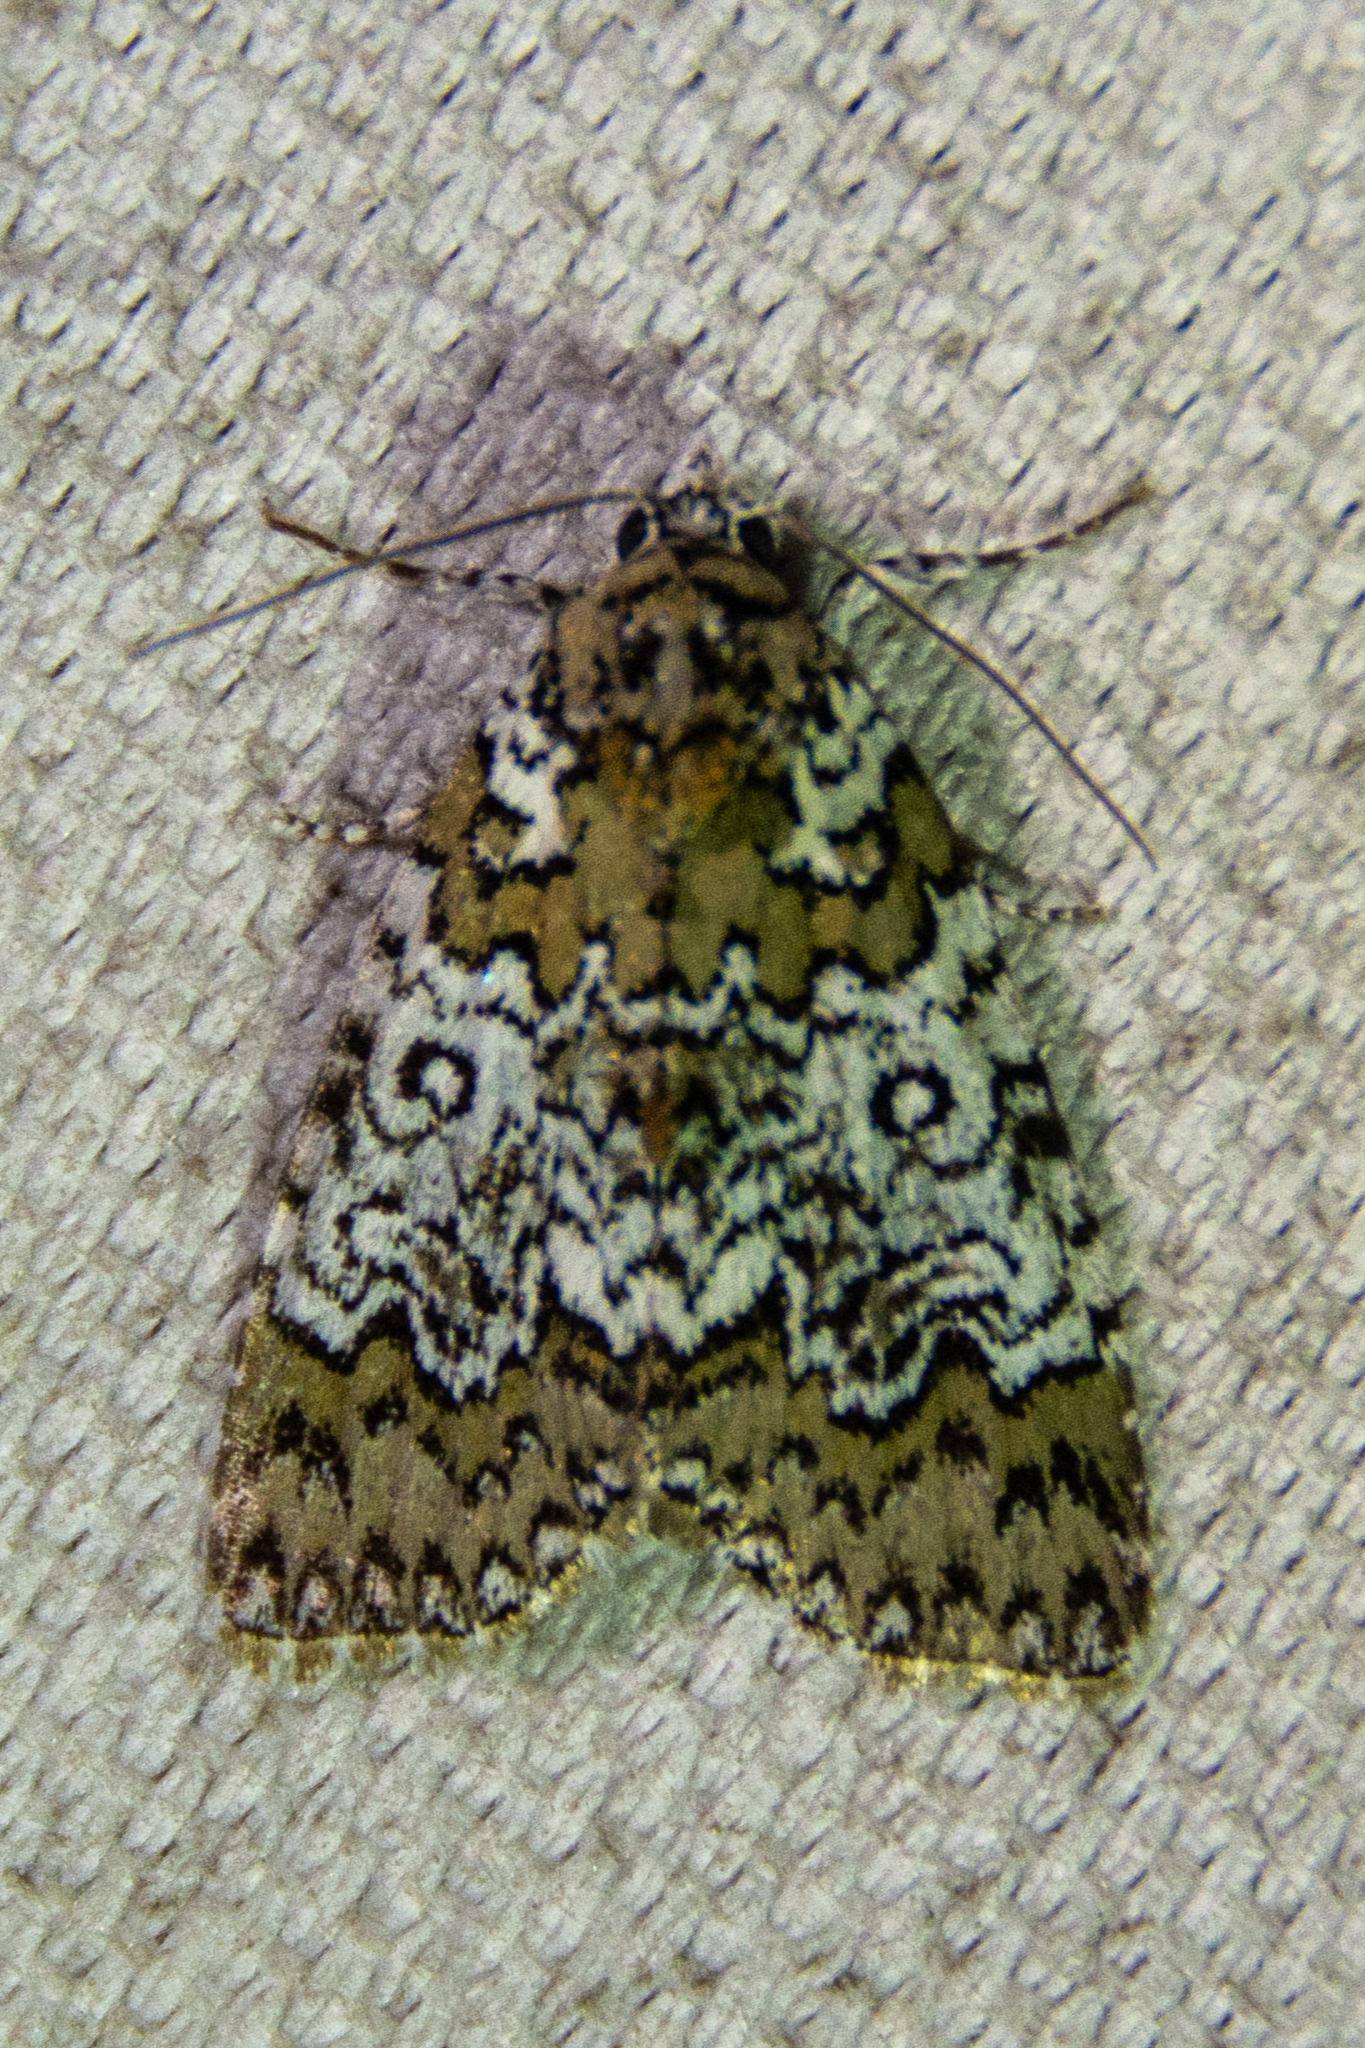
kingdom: Animalia
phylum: Arthropoda
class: Insecta
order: Lepidoptera
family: Noctuidae
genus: Cerma
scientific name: Cerma cora
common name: Bird dropping moth
